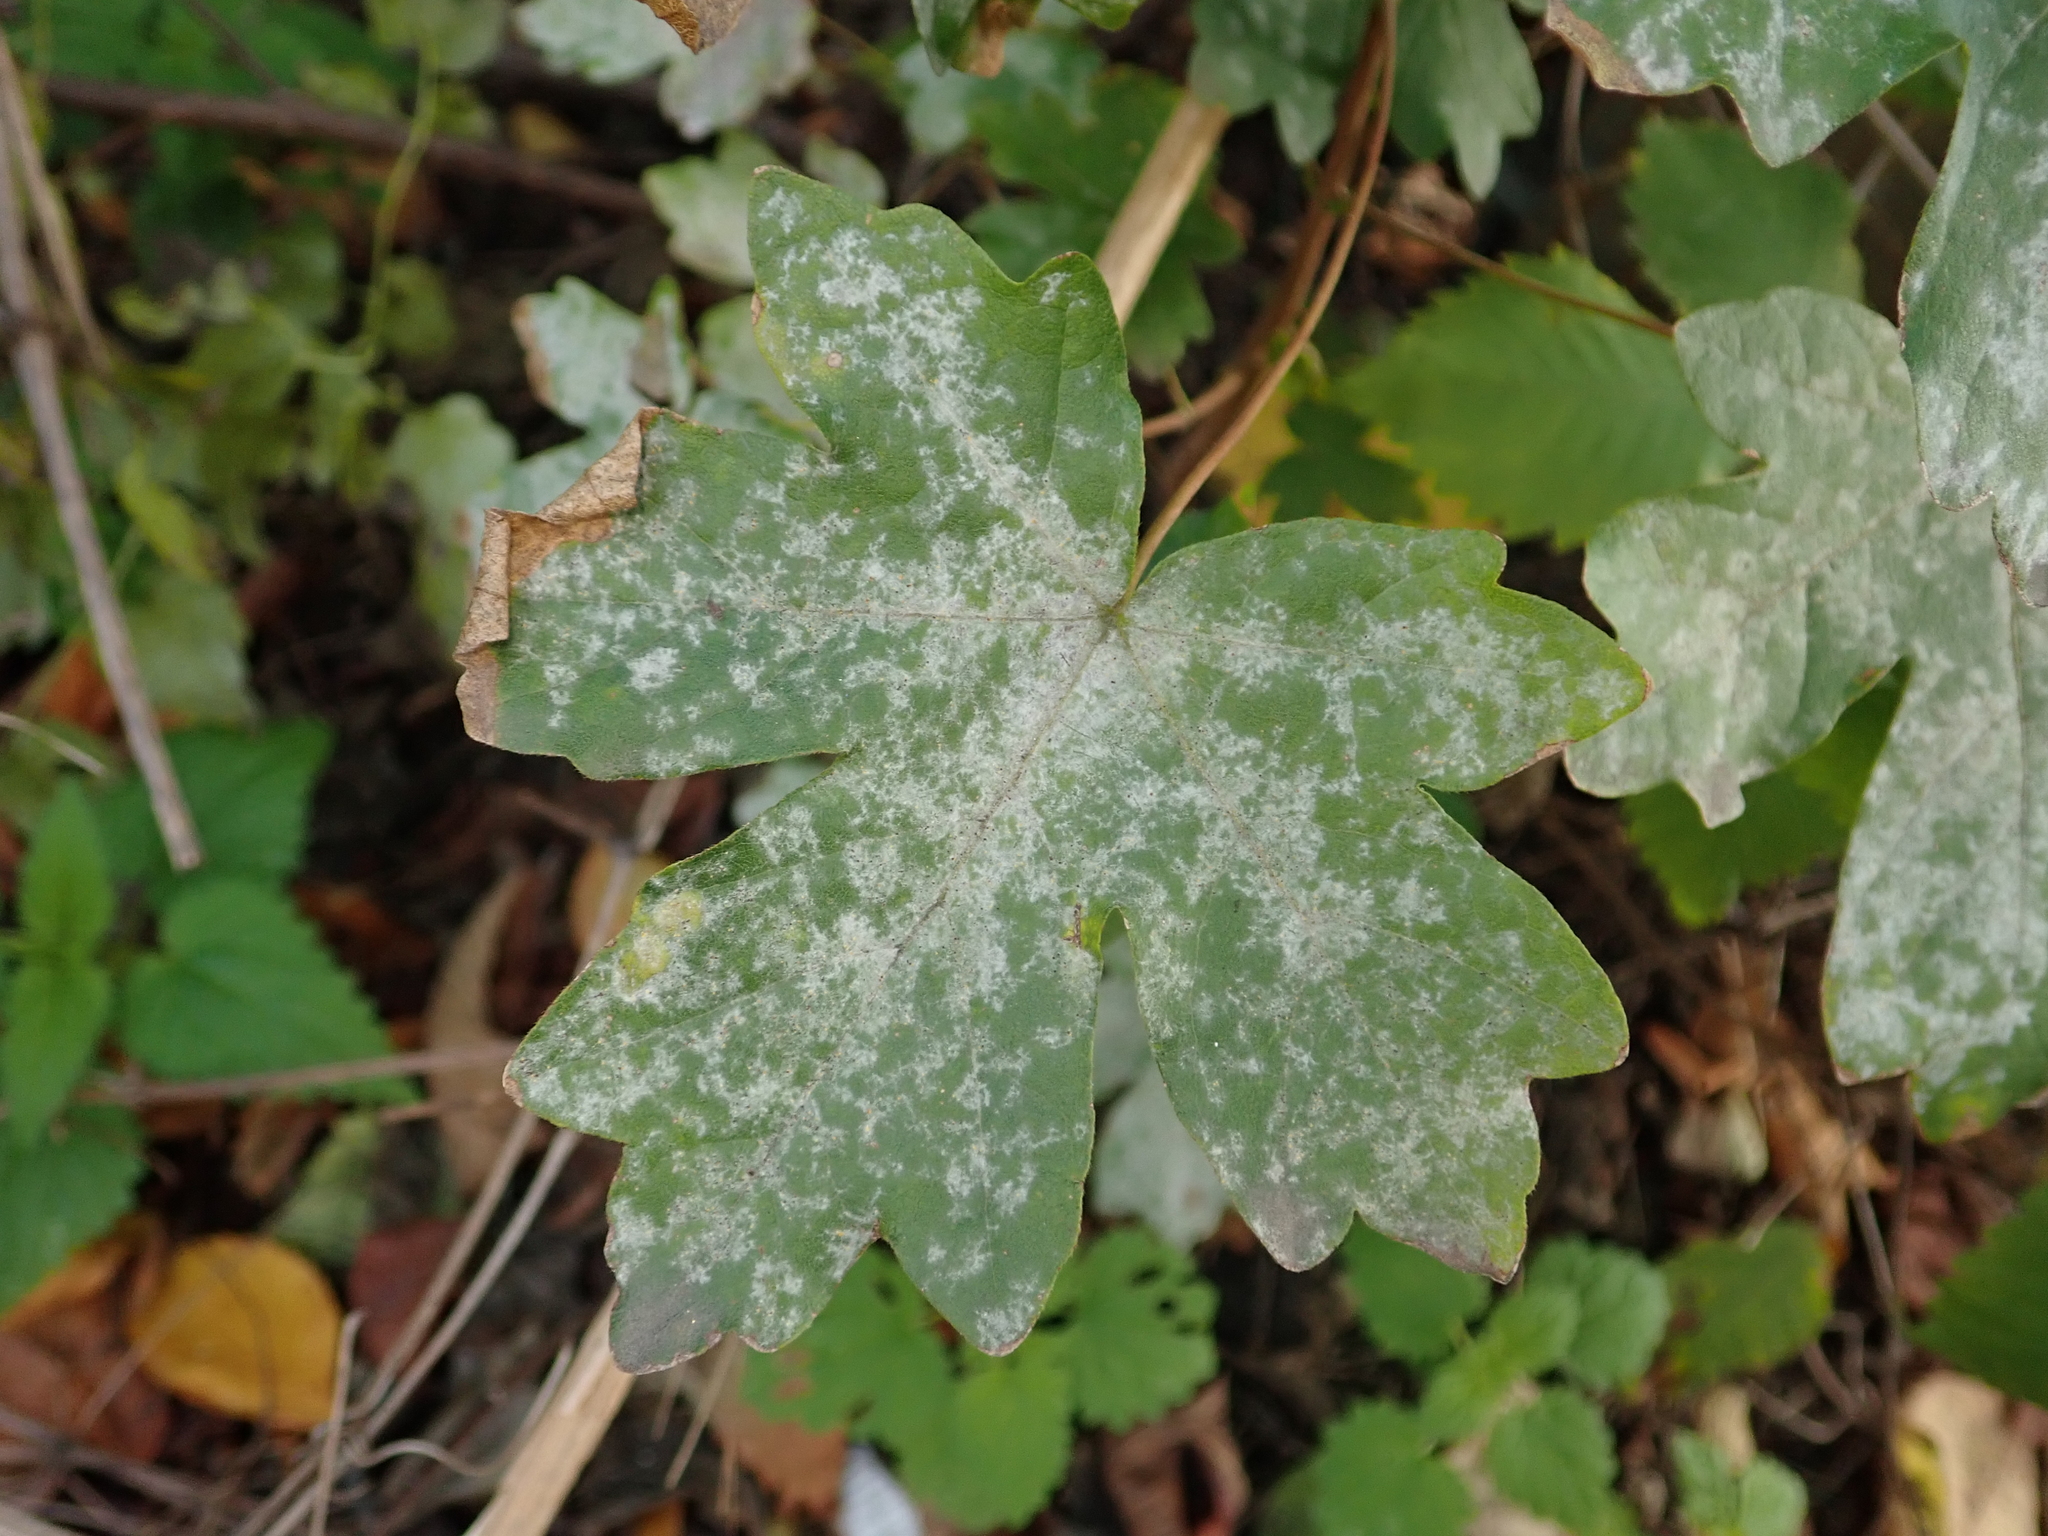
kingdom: Plantae
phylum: Tracheophyta
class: Magnoliopsida
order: Sapindales
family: Sapindaceae
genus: Acer
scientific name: Acer campestre
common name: Field maple
